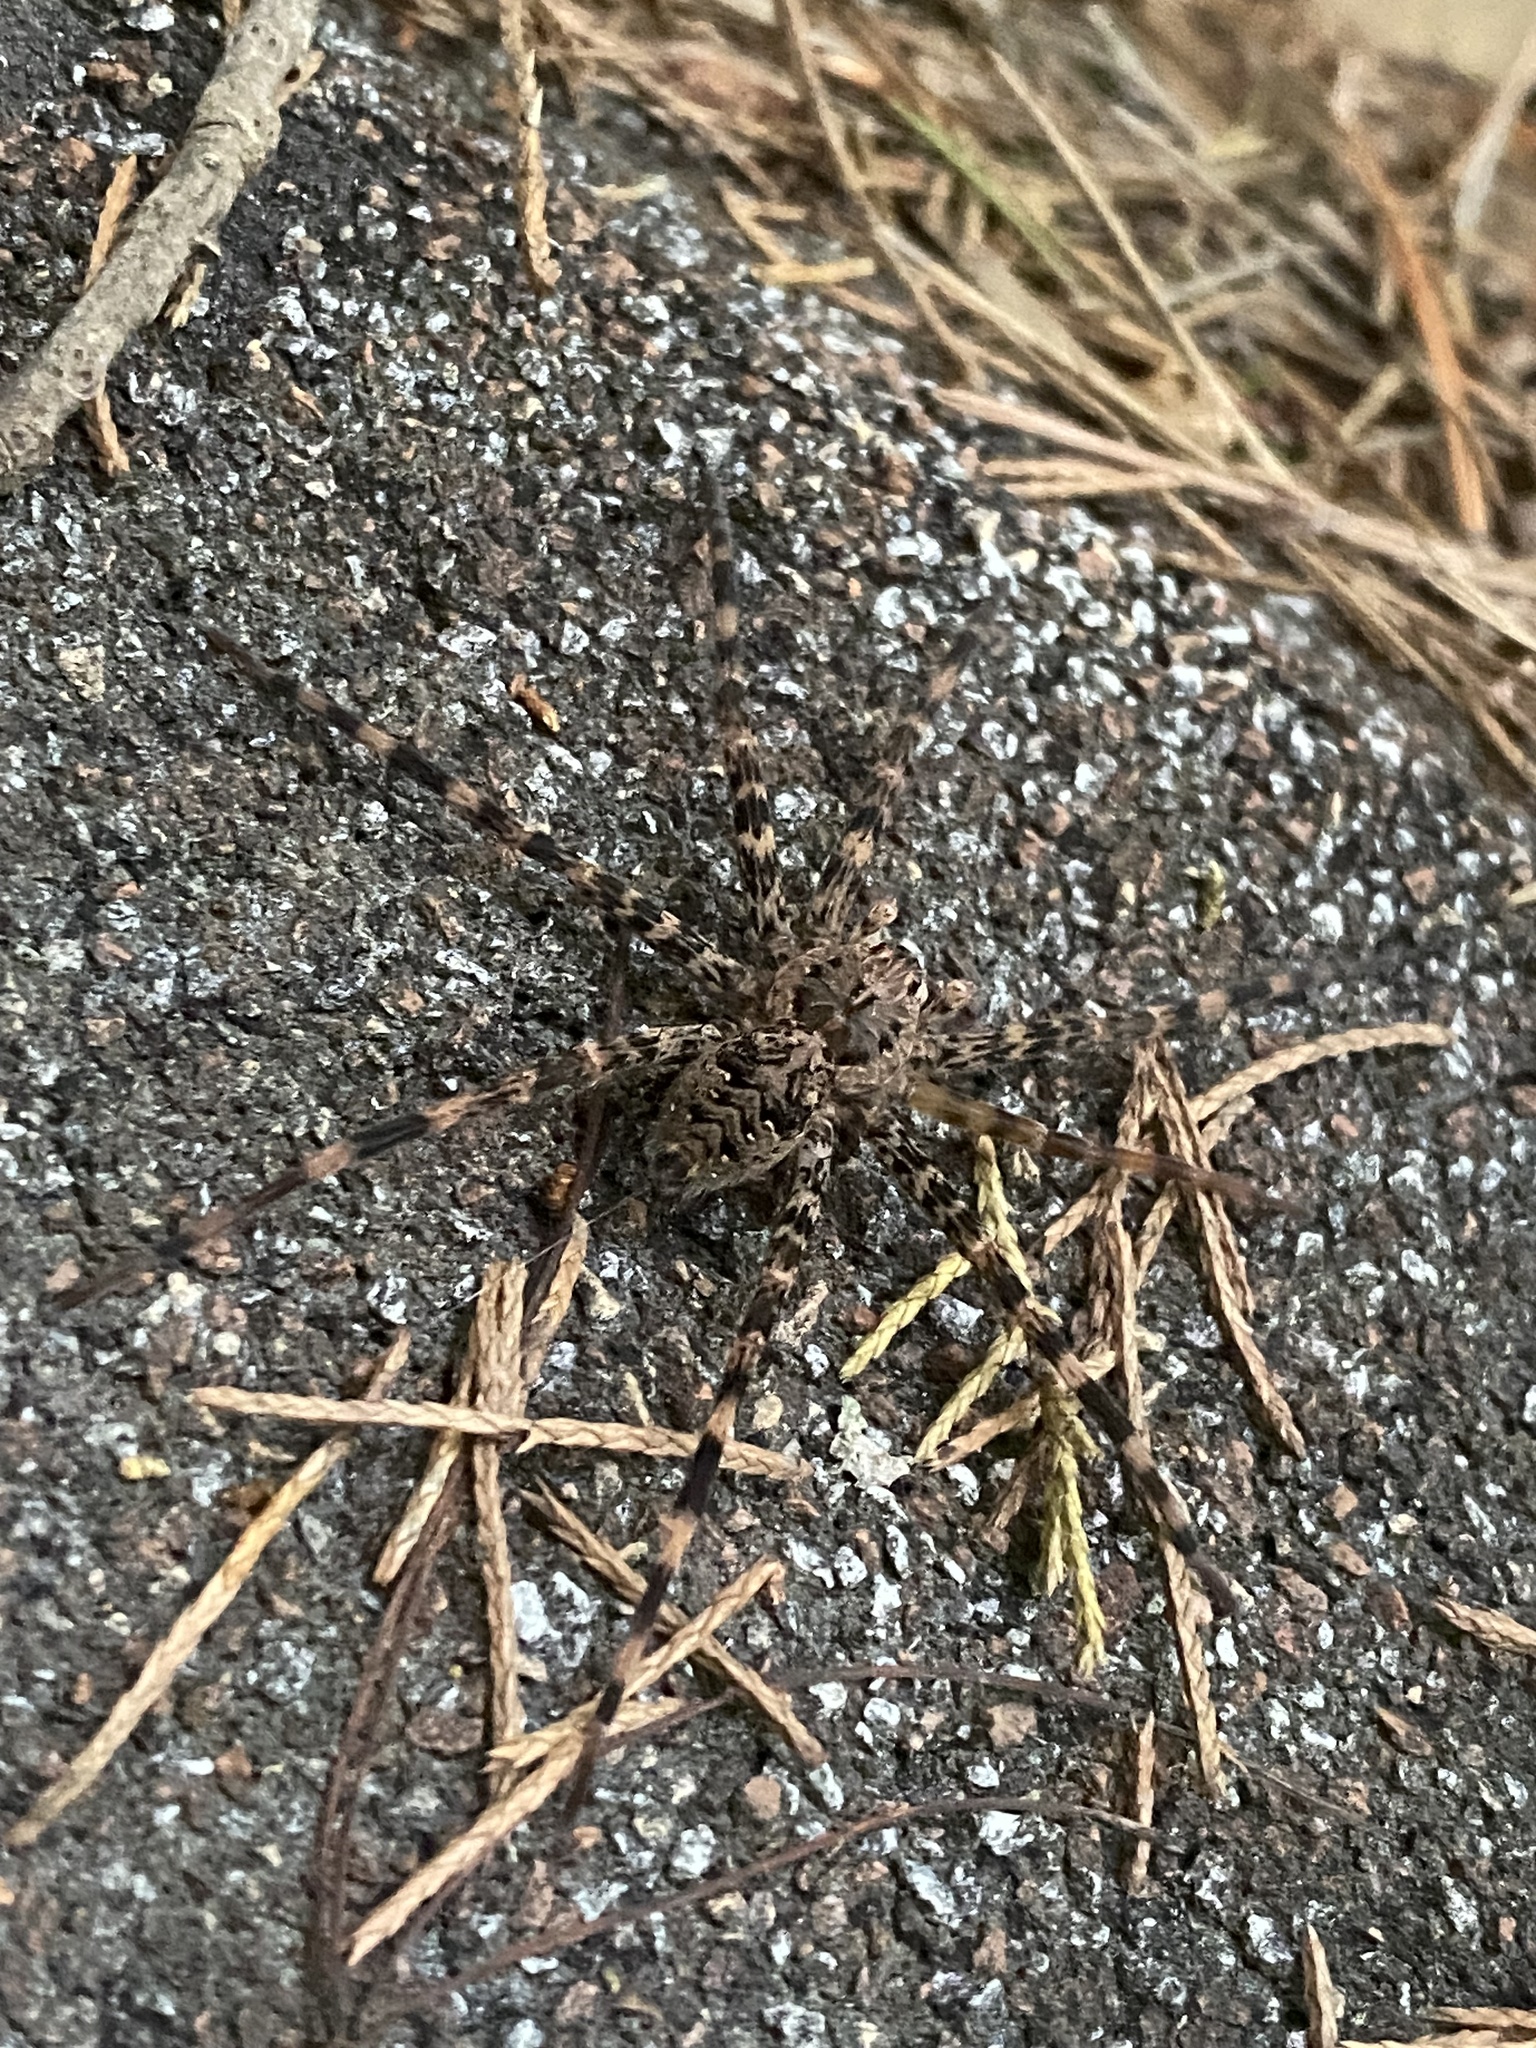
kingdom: Animalia
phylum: Arthropoda
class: Arachnida
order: Araneae
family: Pisauridae
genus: Dolomedes
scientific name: Dolomedes tenebrosus
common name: Dark fishing spider
